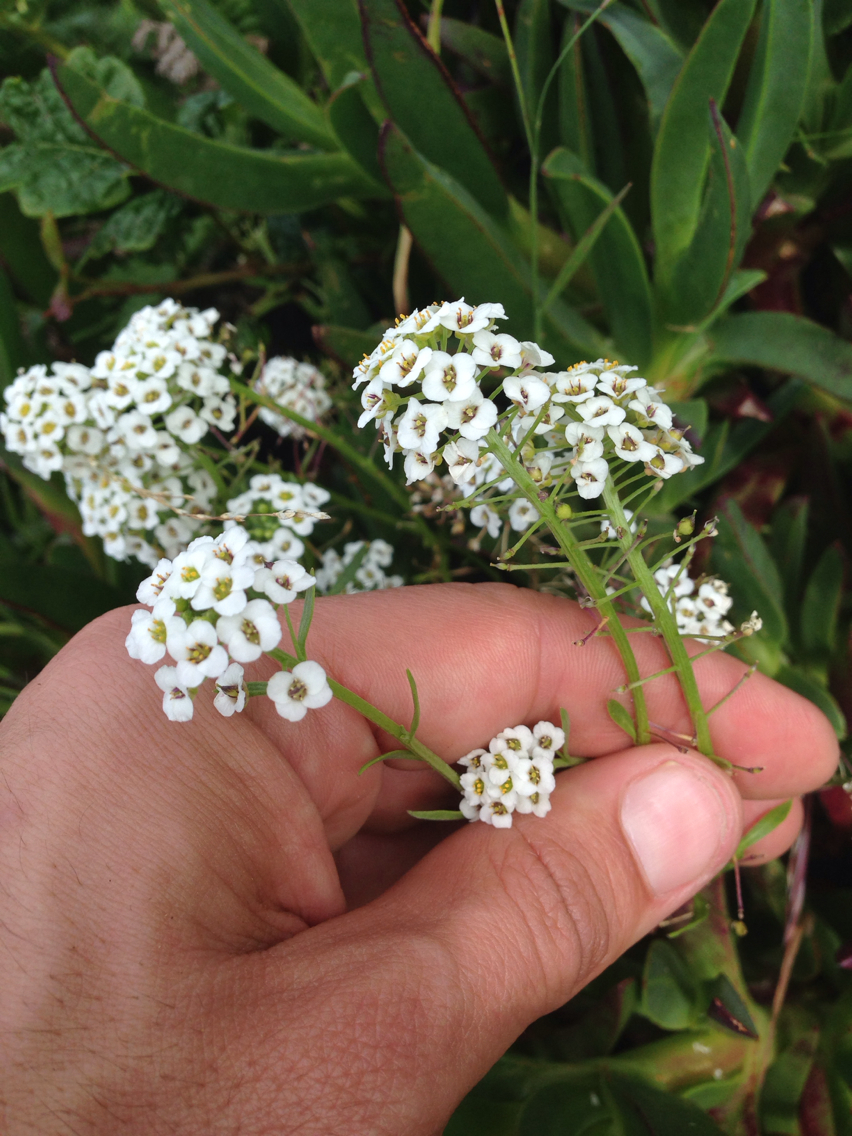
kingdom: Plantae
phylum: Tracheophyta
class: Magnoliopsida
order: Brassicales
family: Brassicaceae
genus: Lobularia
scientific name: Lobularia maritima
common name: Sweet alison
